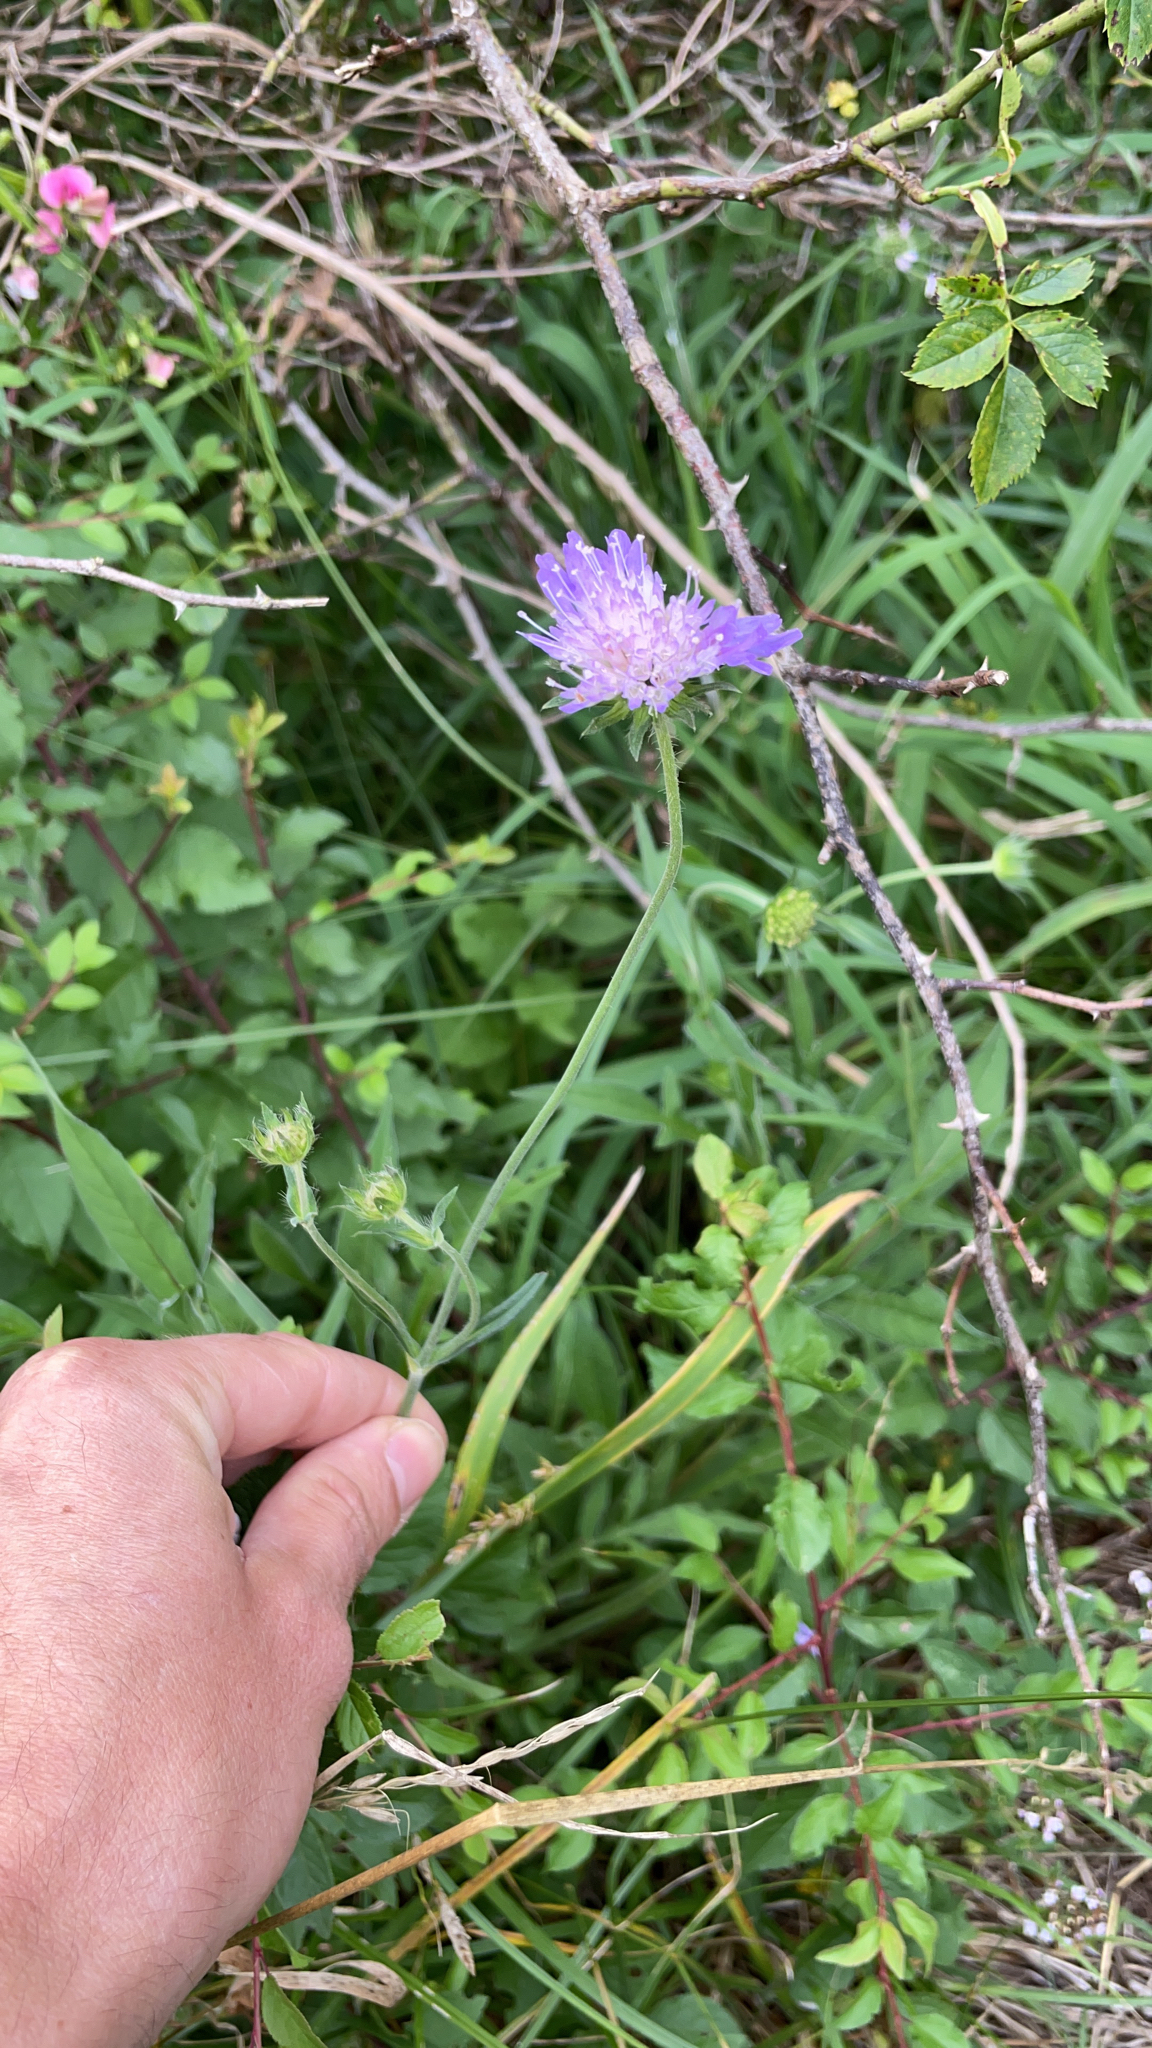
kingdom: Plantae
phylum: Tracheophyta
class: Magnoliopsida
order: Dipsacales
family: Caprifoliaceae
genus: Knautia
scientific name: Knautia arvensis
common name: Field scabiosa
